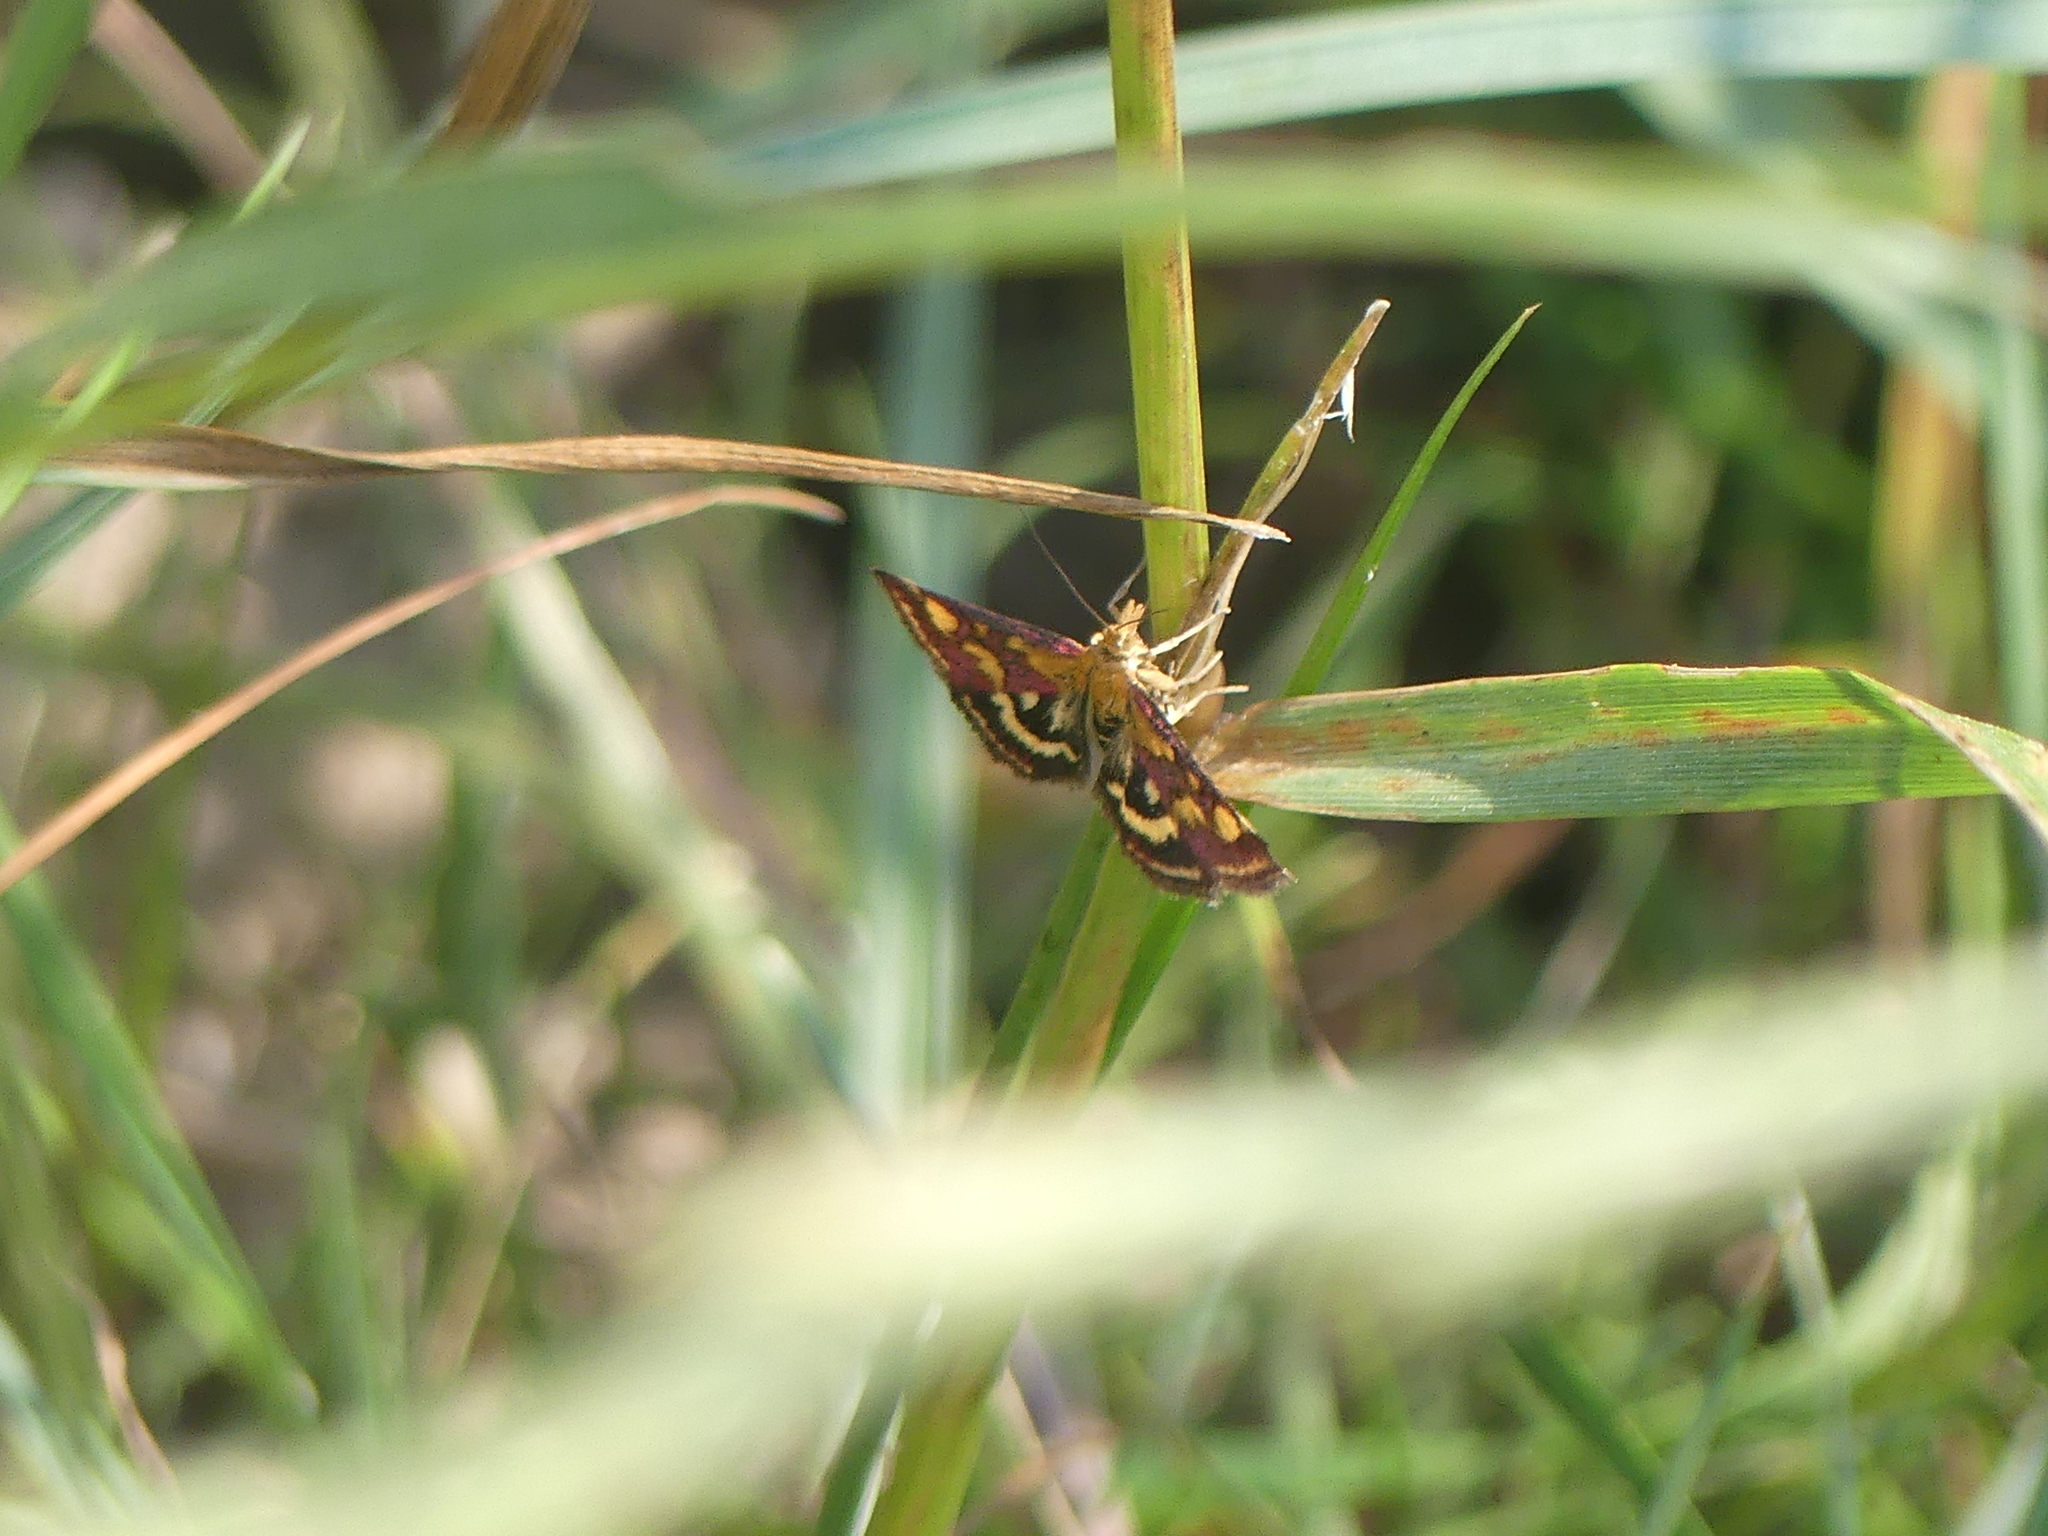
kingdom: Animalia
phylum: Arthropoda
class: Insecta
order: Lepidoptera
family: Crambidae
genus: Pyrausta
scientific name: Pyrausta purpuralis
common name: Common purple & gold
